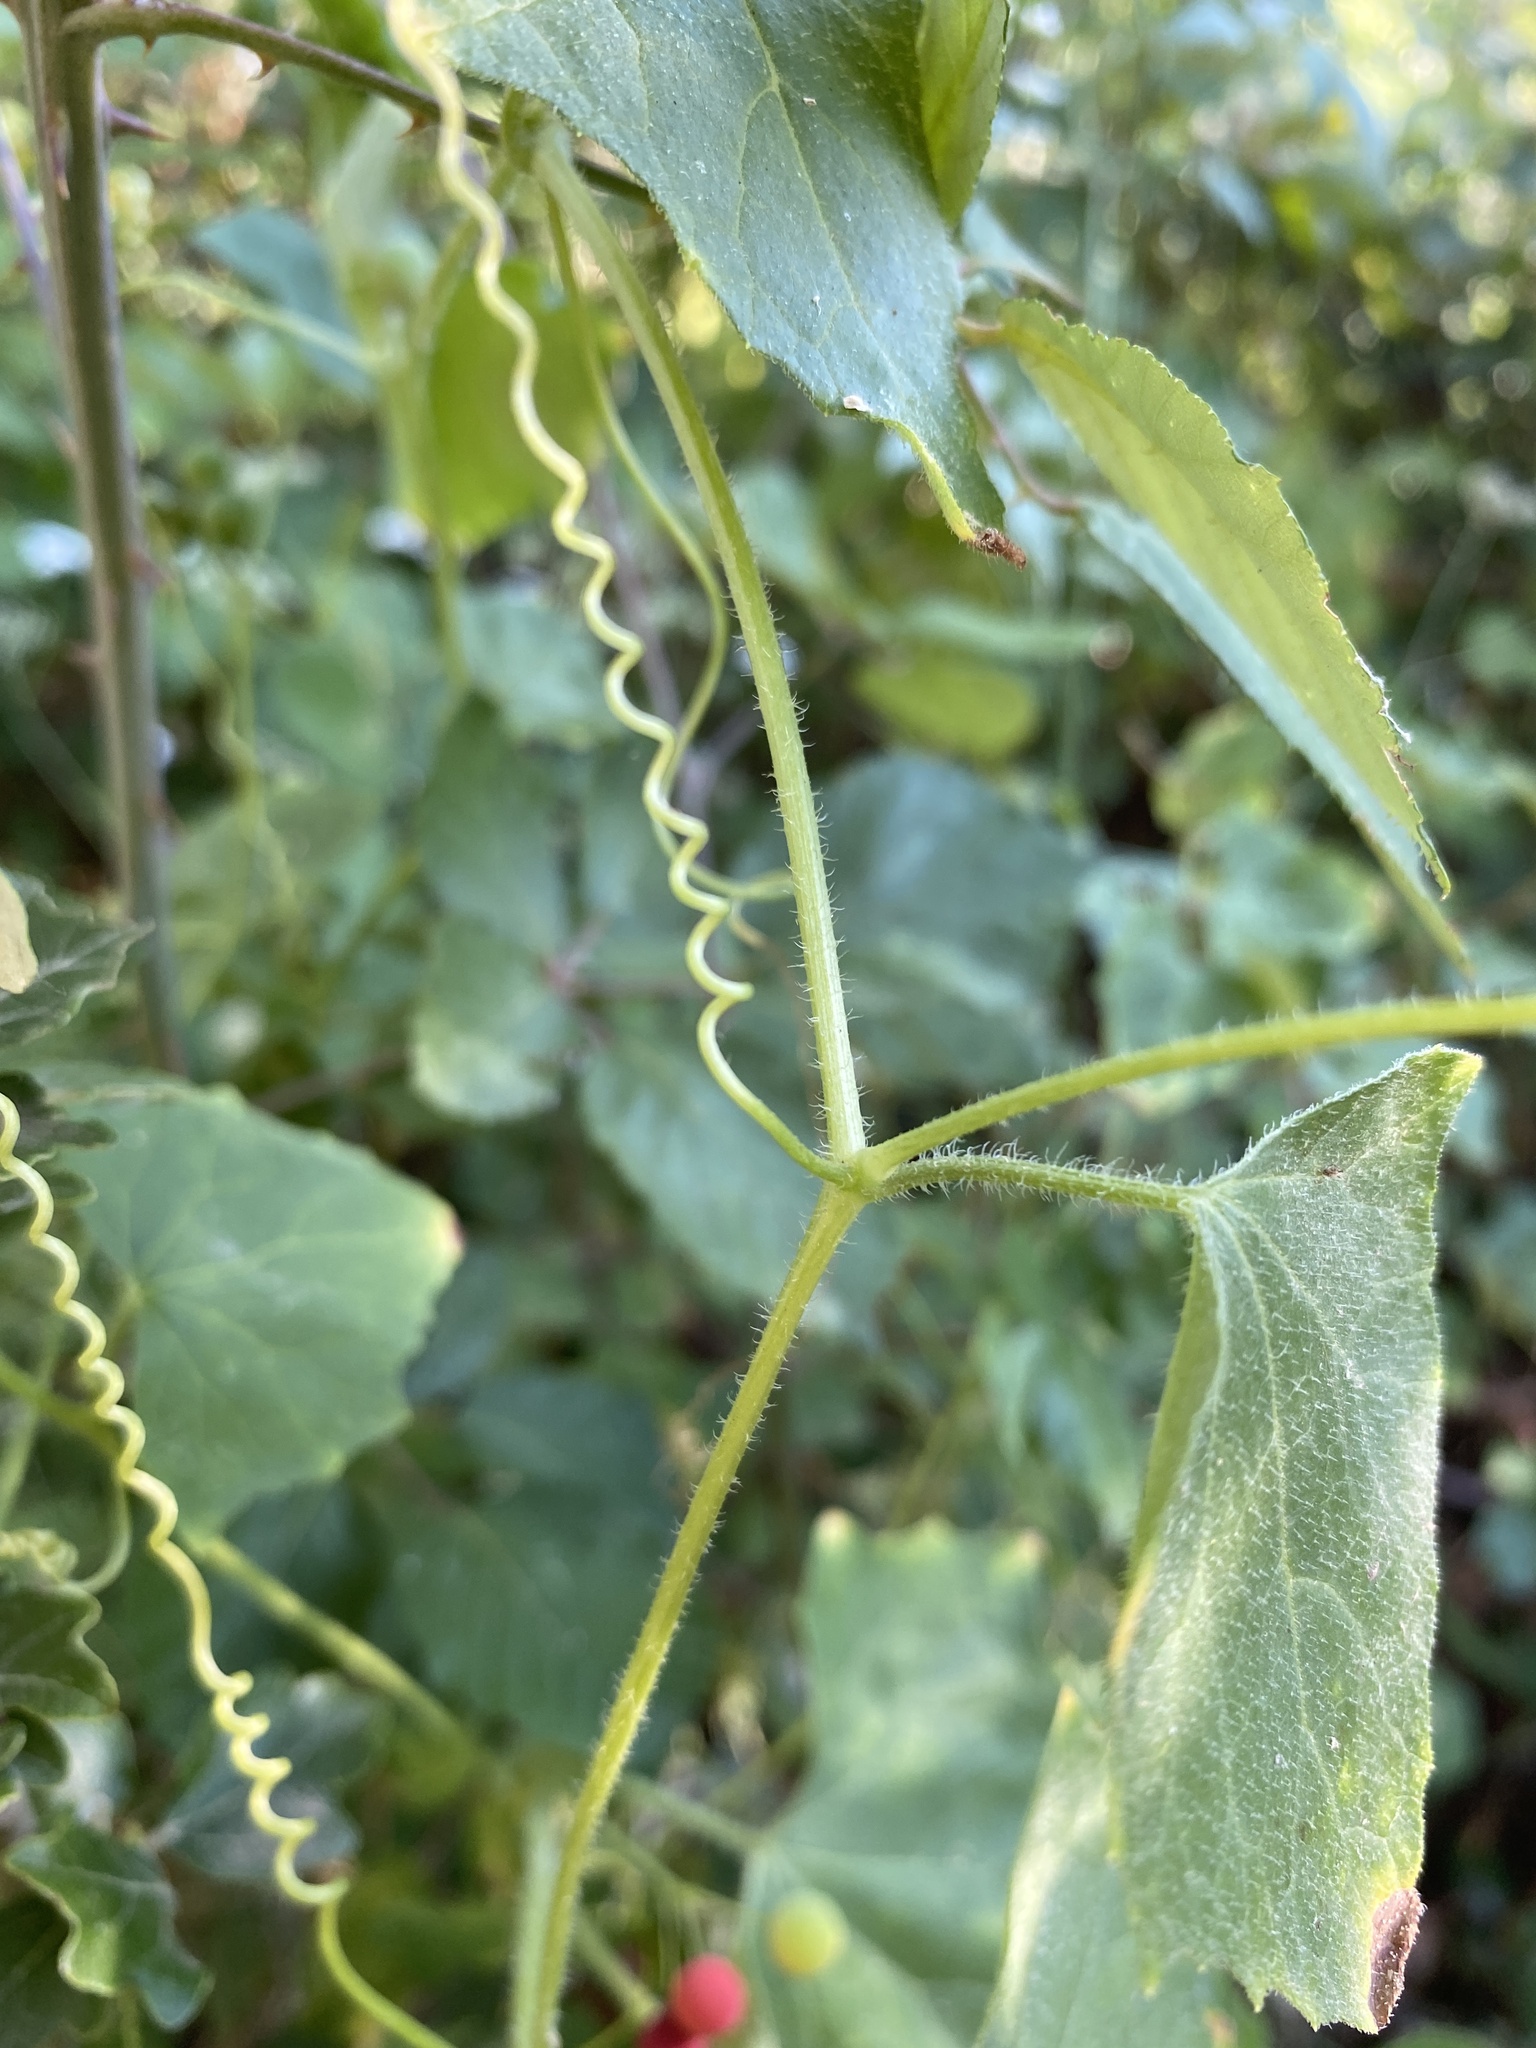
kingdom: Plantae
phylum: Tracheophyta
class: Magnoliopsida
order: Cucurbitales
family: Cucurbitaceae
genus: Bryonia
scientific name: Bryonia cretica
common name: Cretan bryony
